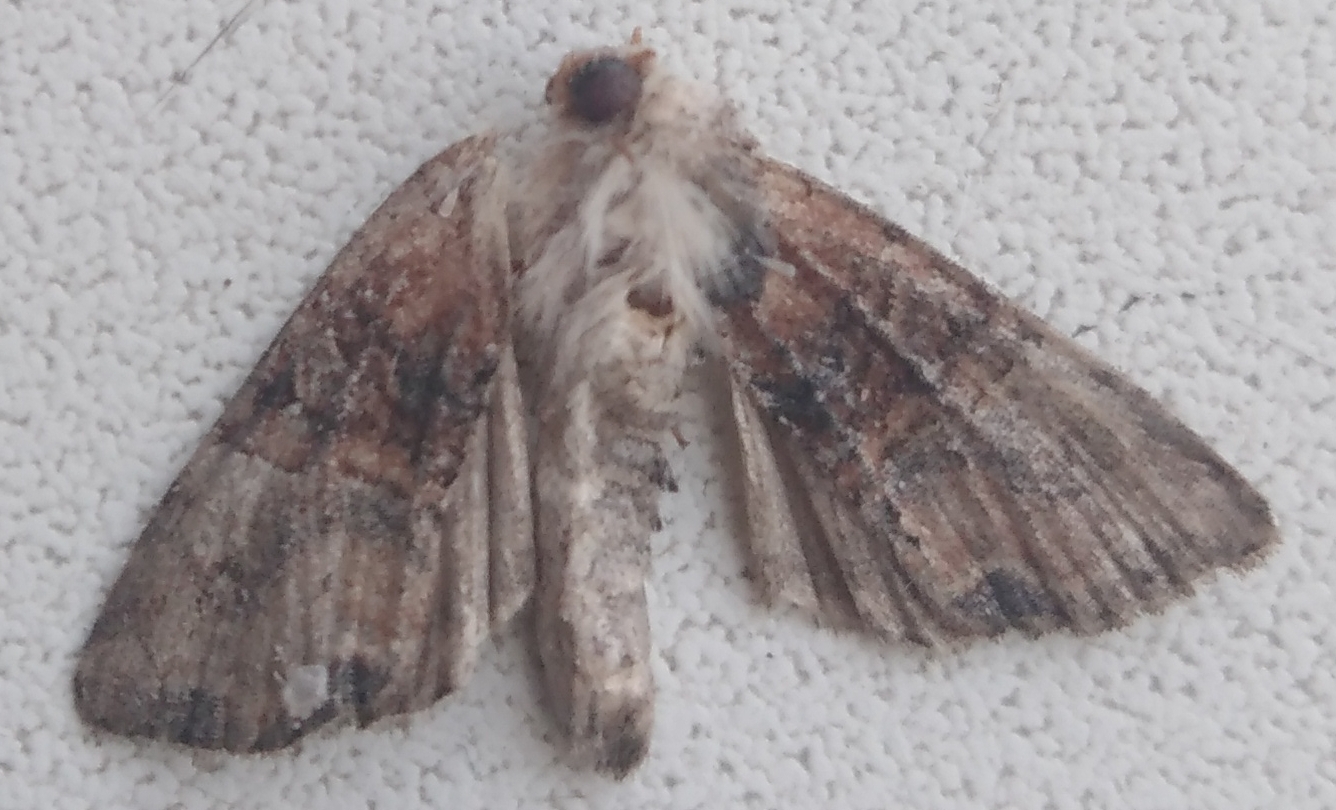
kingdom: Animalia
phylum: Arthropoda
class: Insecta
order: Lepidoptera
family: Noctuidae
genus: Mesoligia
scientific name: Mesoligia furuncula
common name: Cloaked minor
